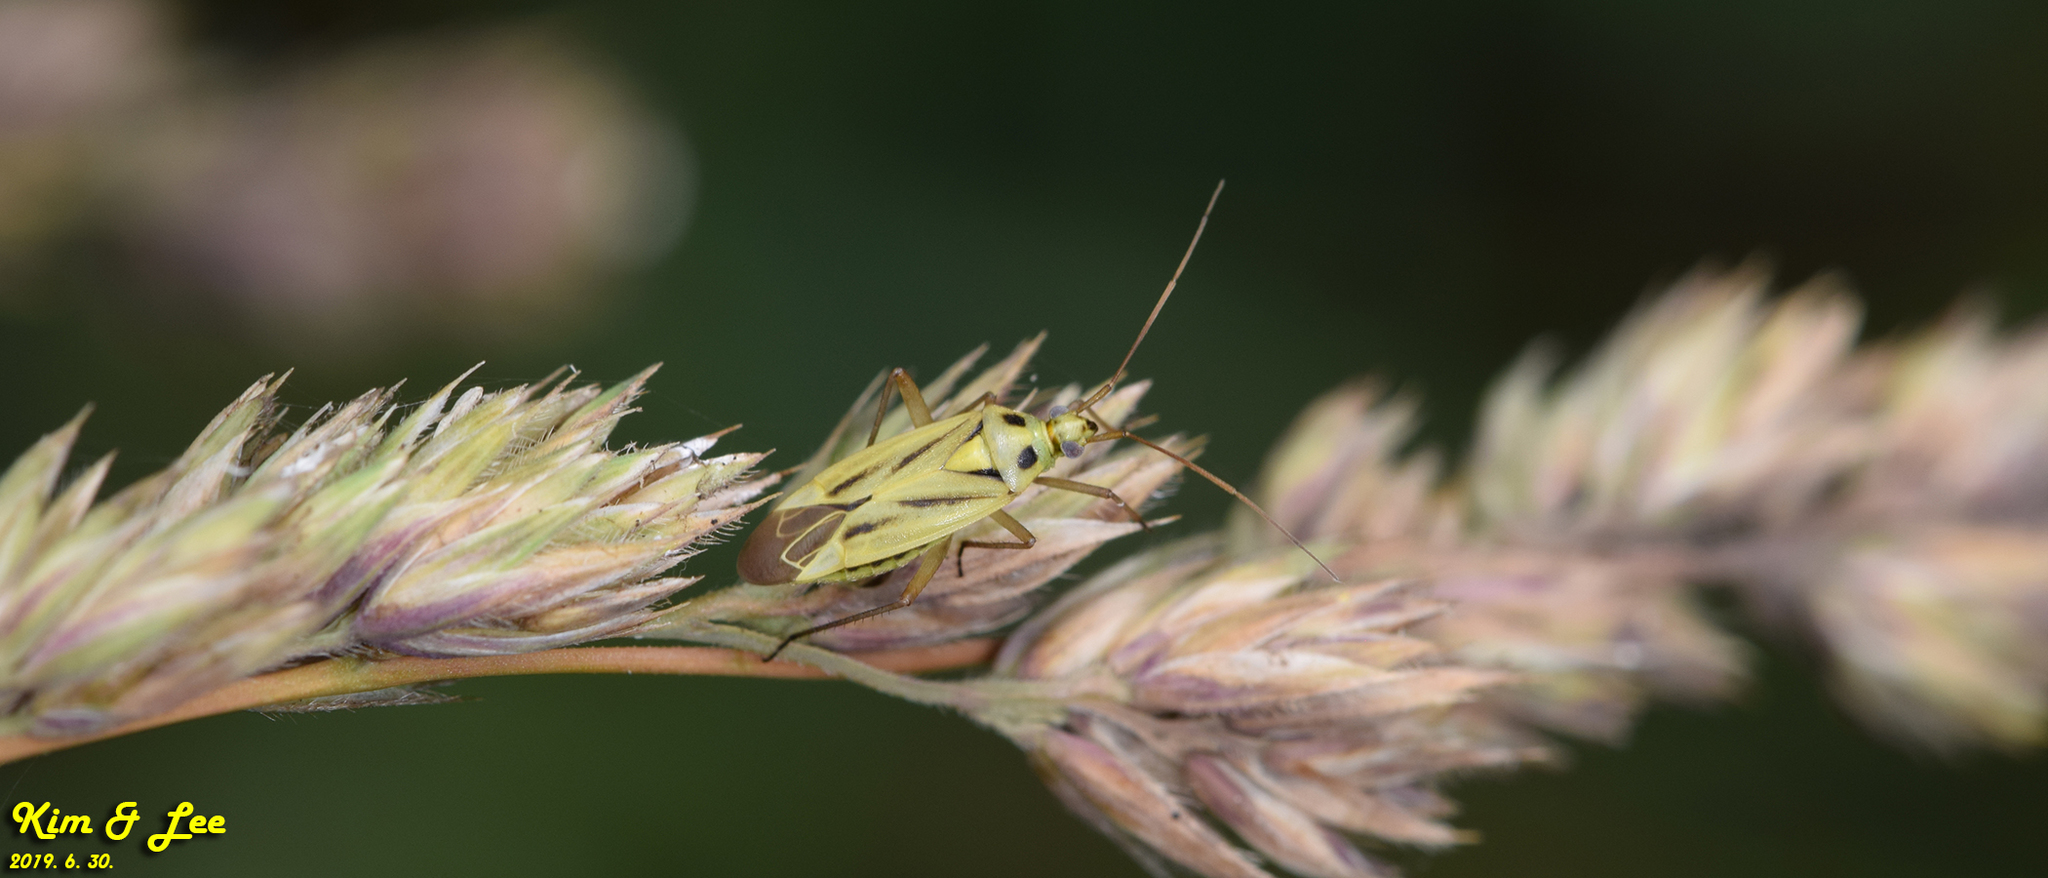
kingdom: Animalia
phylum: Arthropoda
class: Insecta
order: Hemiptera
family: Miridae
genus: Stenotus
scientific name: Stenotus binotatus
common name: Plant bug
